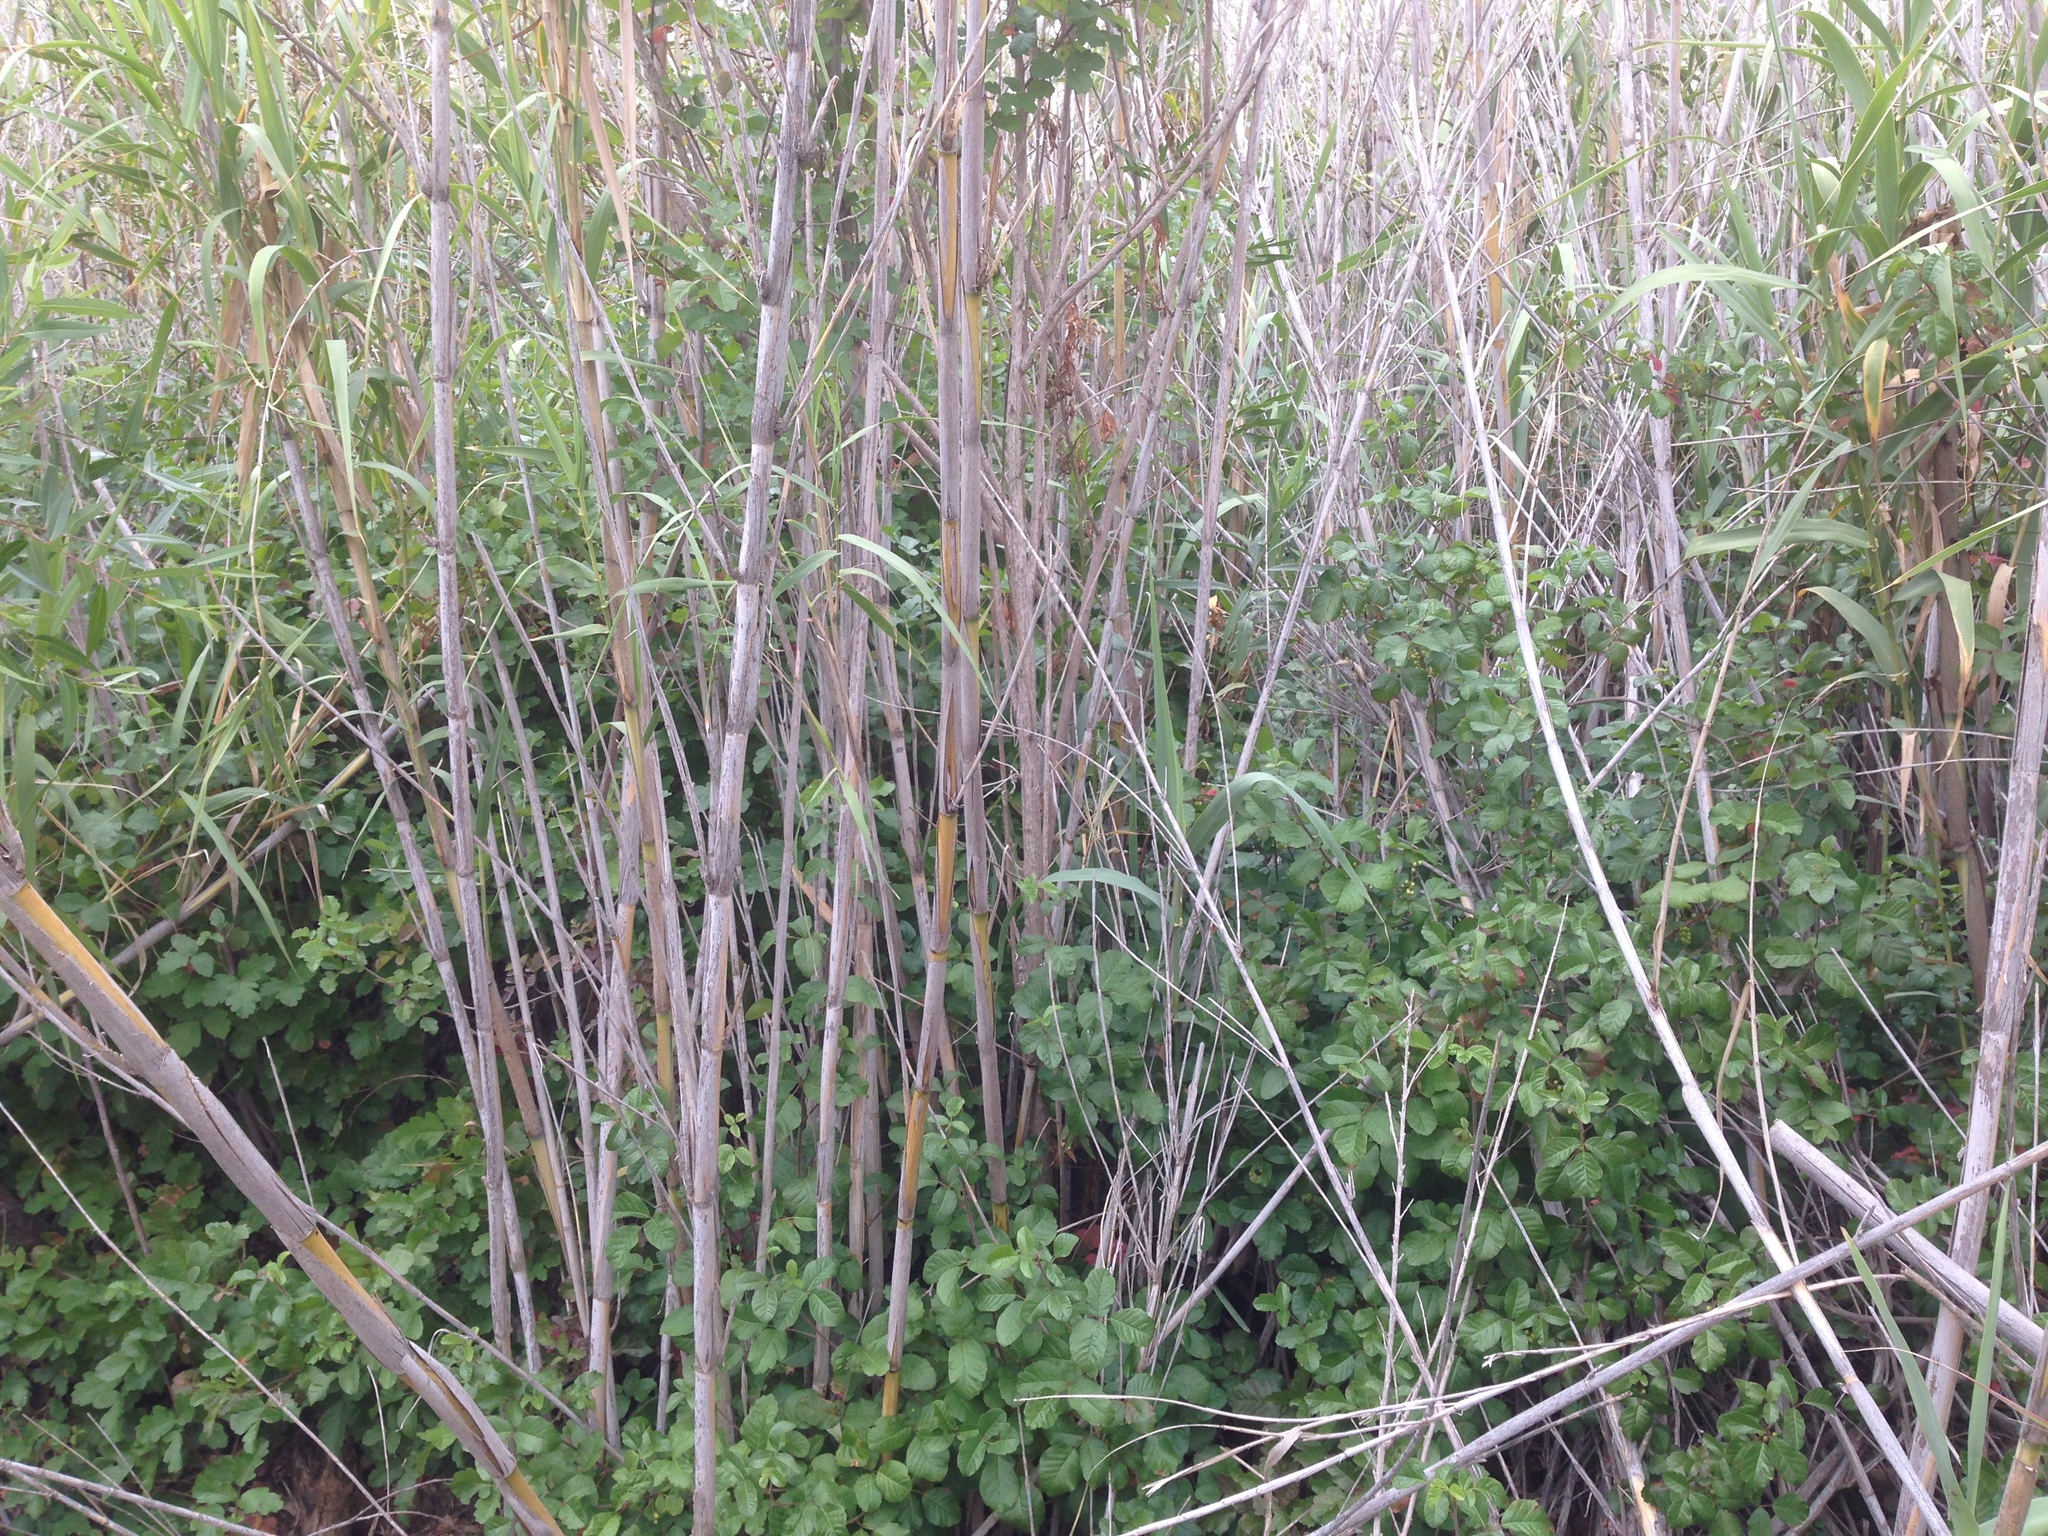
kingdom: Plantae
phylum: Tracheophyta
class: Magnoliopsida
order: Sapindales
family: Anacardiaceae
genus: Toxicodendron
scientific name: Toxicodendron diversilobum
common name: Pacific poison-oak
